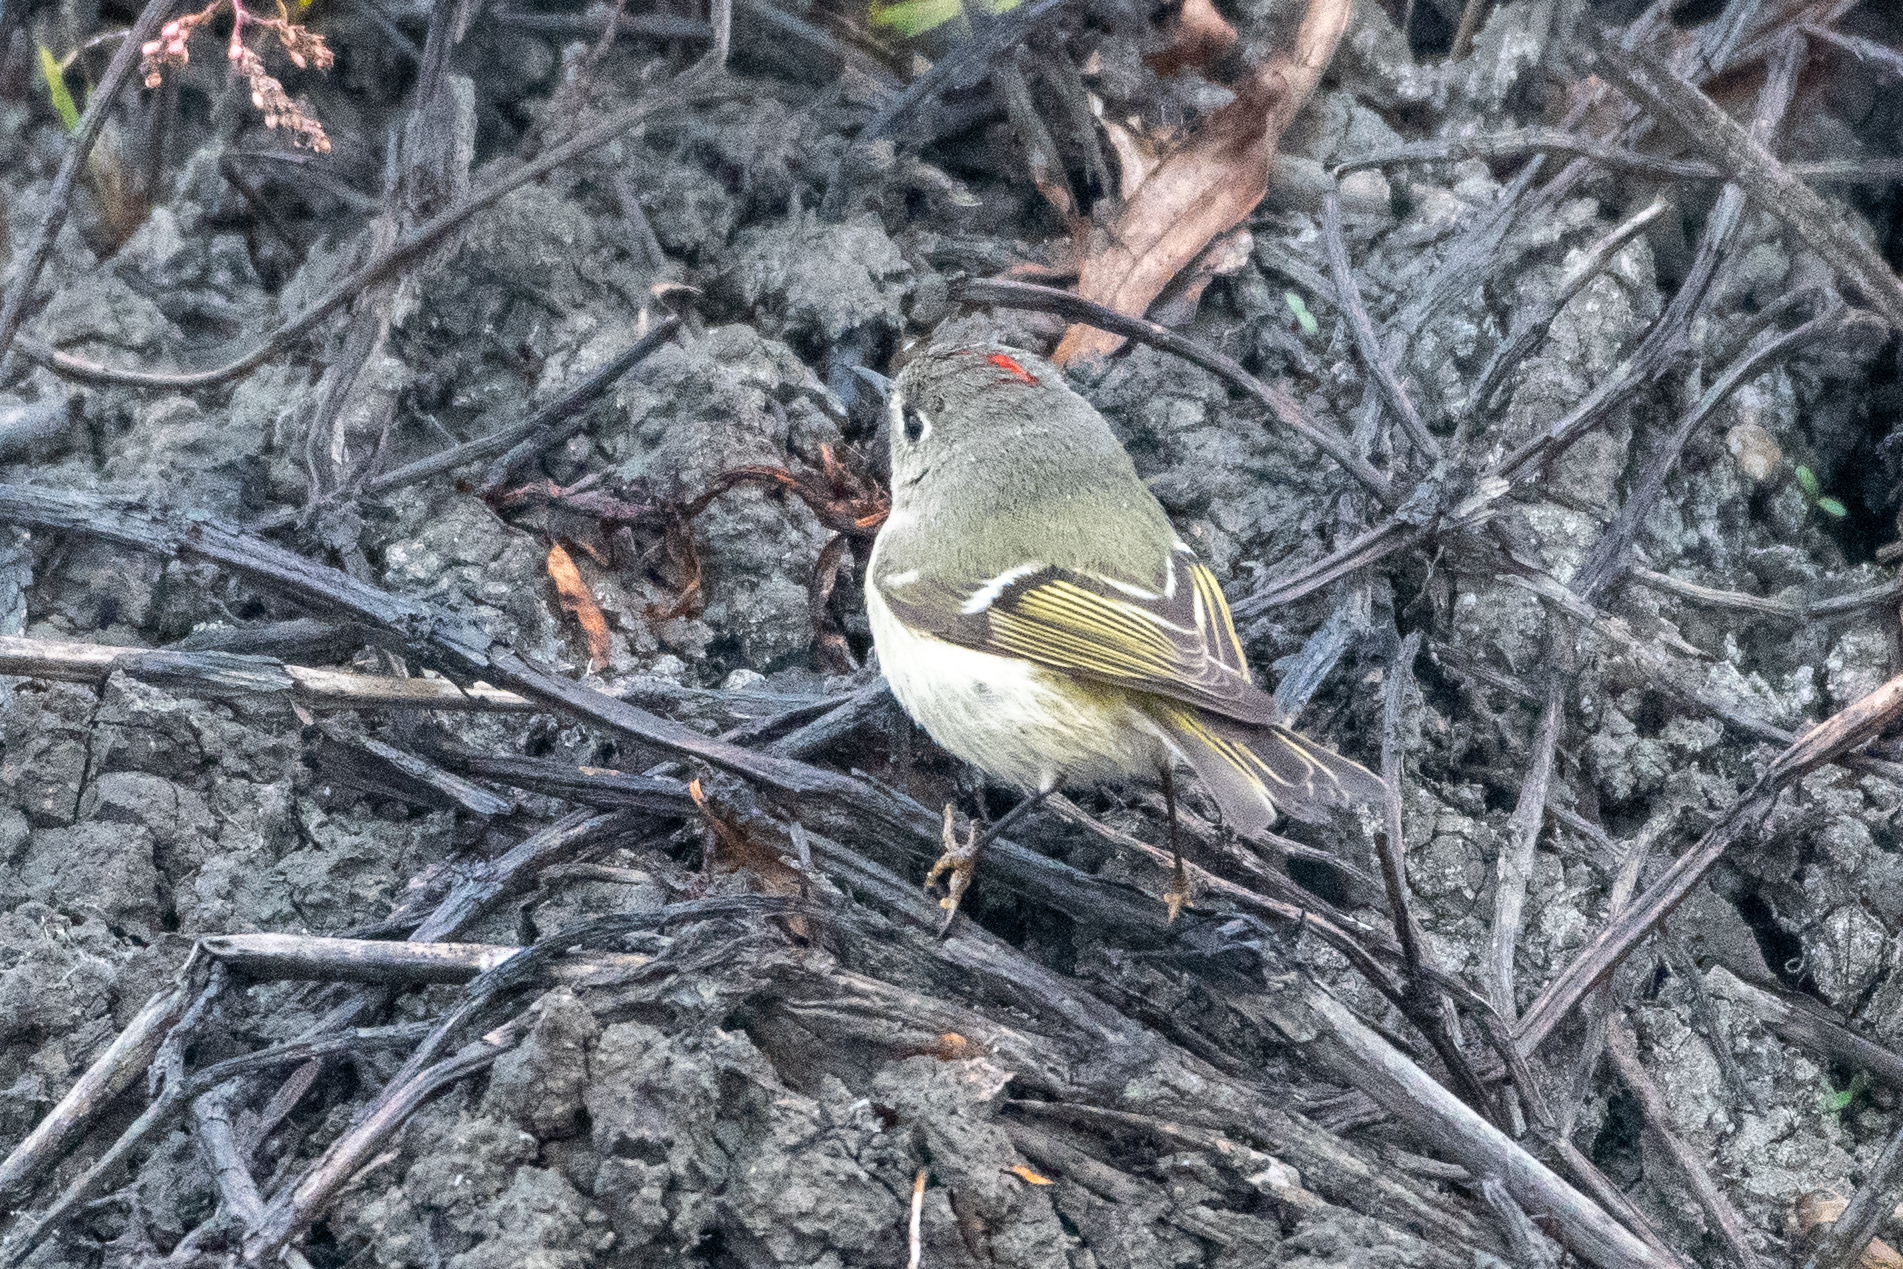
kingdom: Animalia
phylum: Chordata
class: Aves
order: Passeriformes
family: Regulidae
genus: Regulus
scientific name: Regulus calendula
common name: Ruby-crowned kinglet
